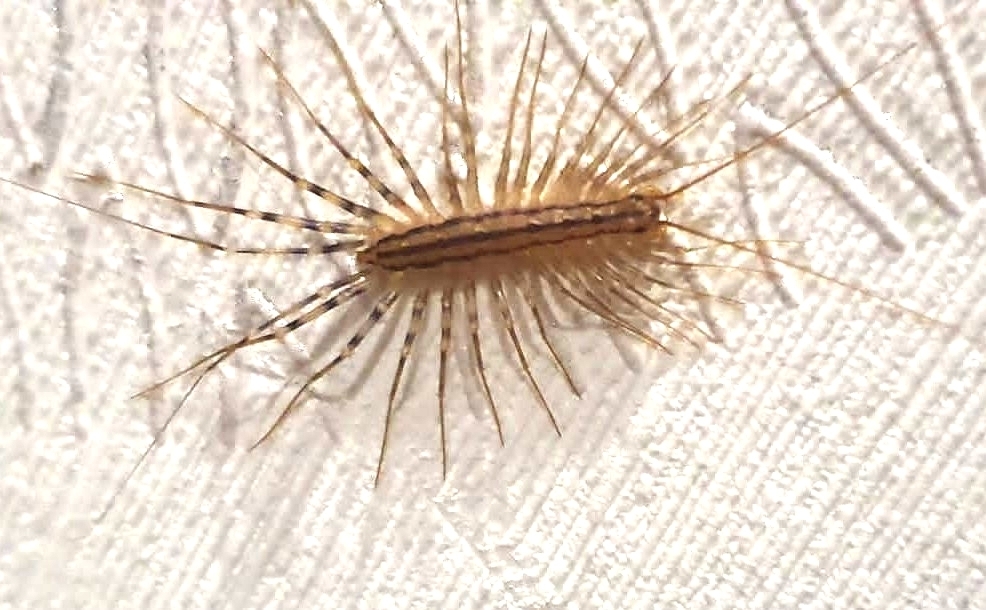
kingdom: Animalia
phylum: Arthropoda
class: Chilopoda
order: Scutigeromorpha
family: Scutigeridae
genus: Scutigera
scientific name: Scutigera coleoptrata
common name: House centipede
